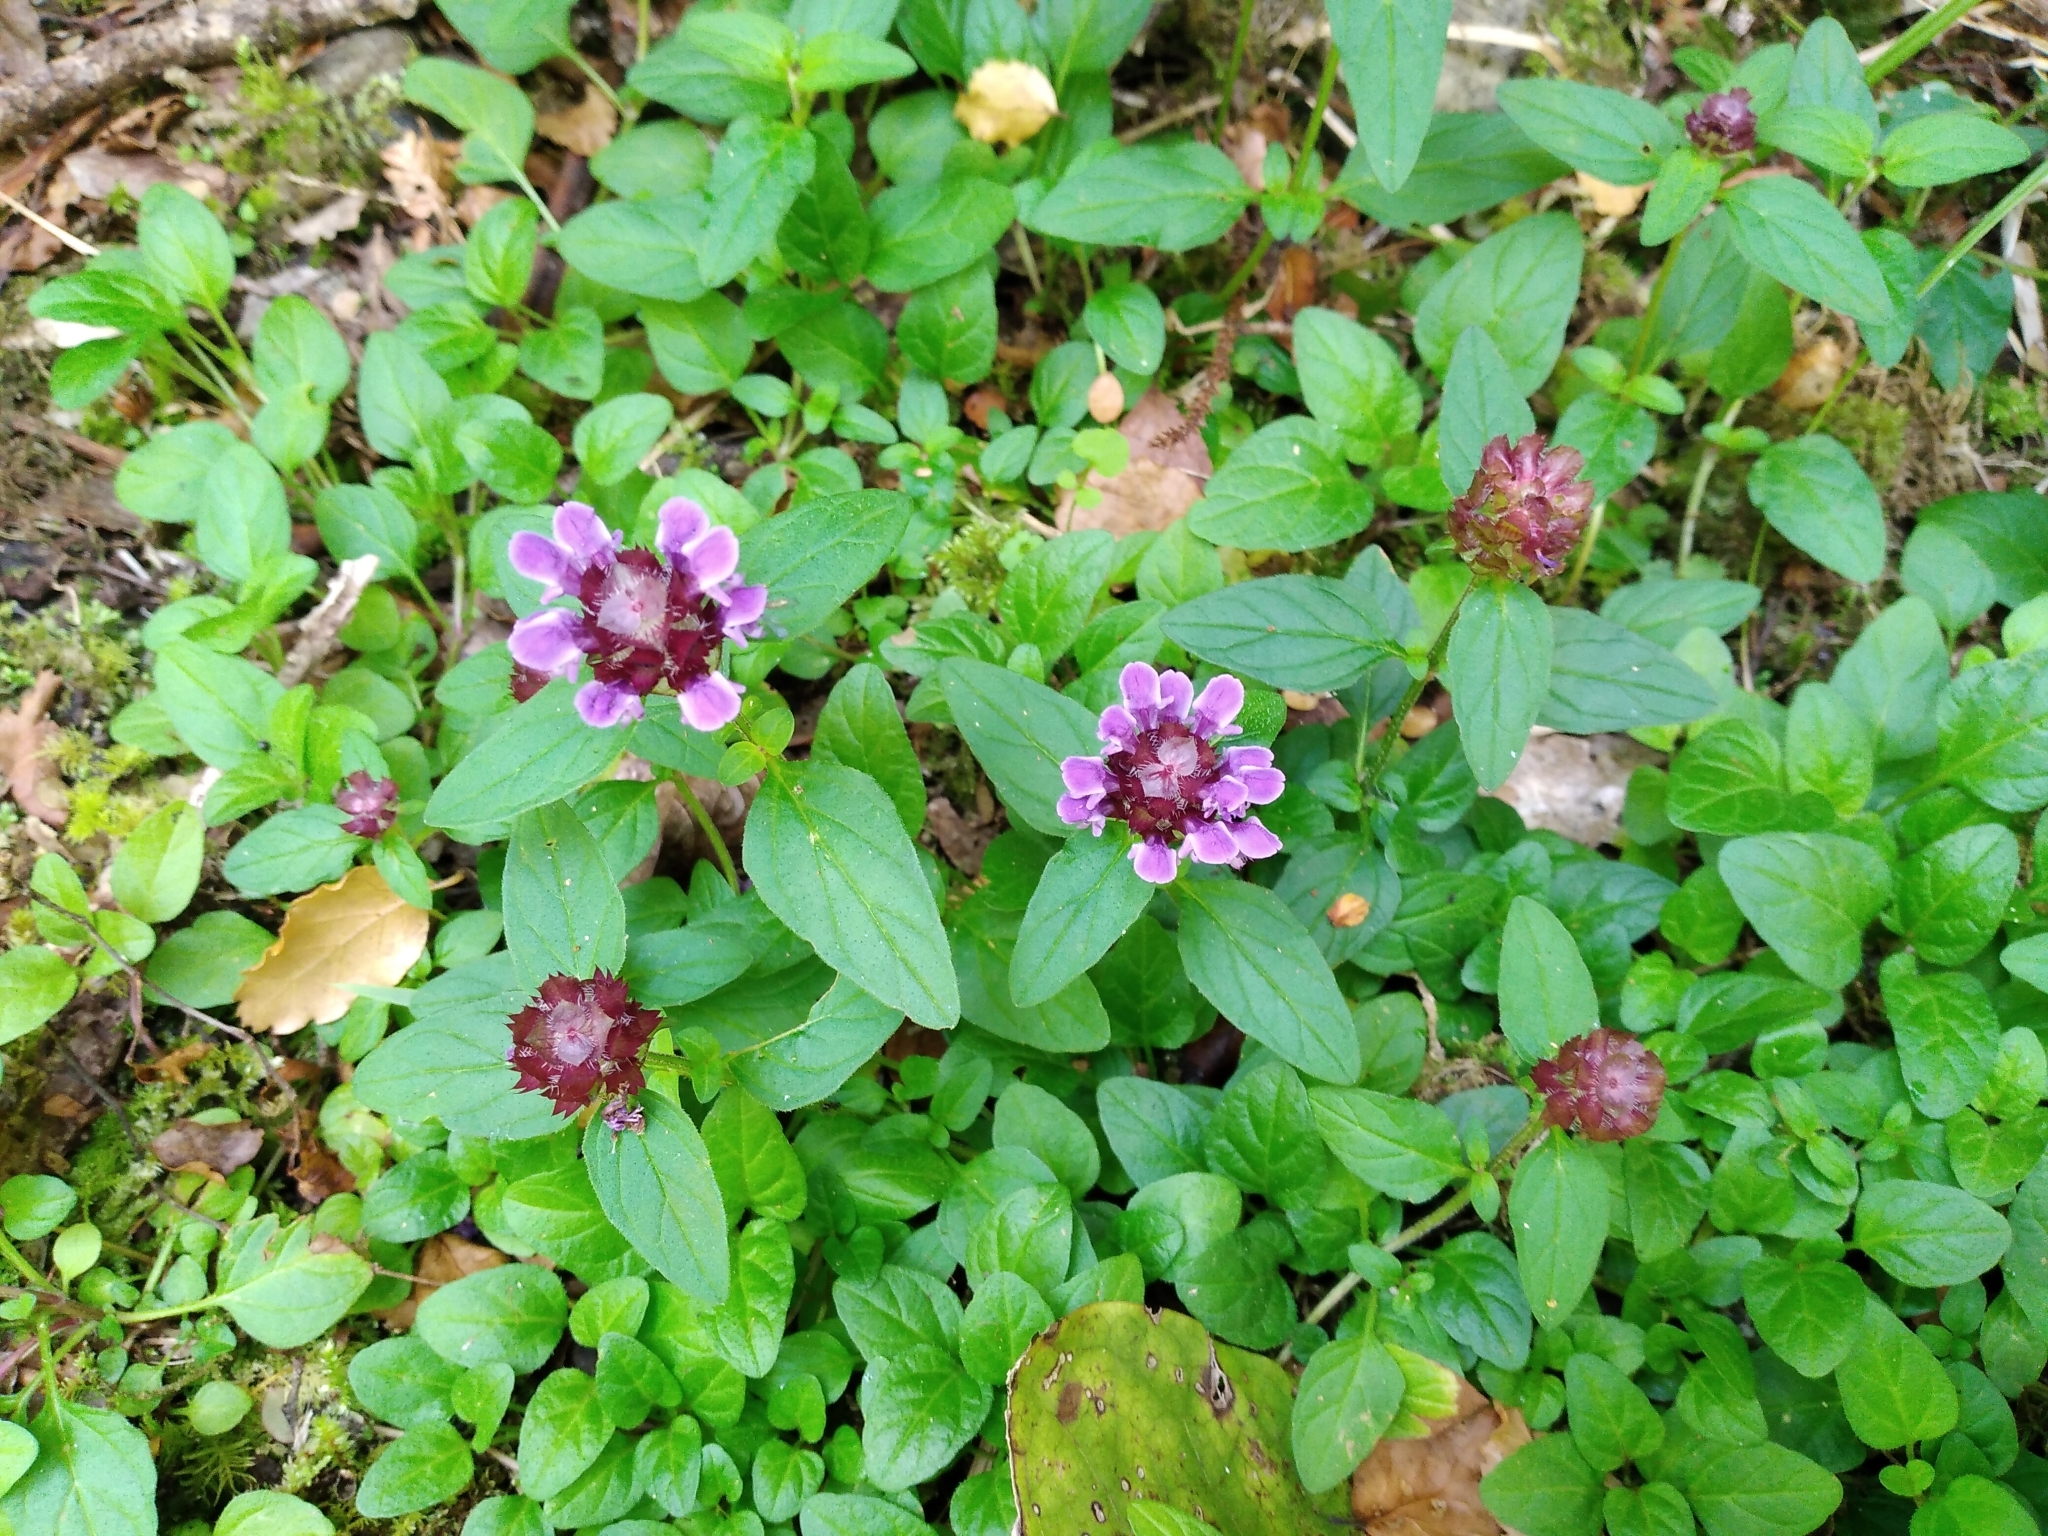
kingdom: Plantae
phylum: Tracheophyta
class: Magnoliopsida
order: Lamiales
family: Lamiaceae
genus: Prunella
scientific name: Prunella vulgaris
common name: Heal-all
